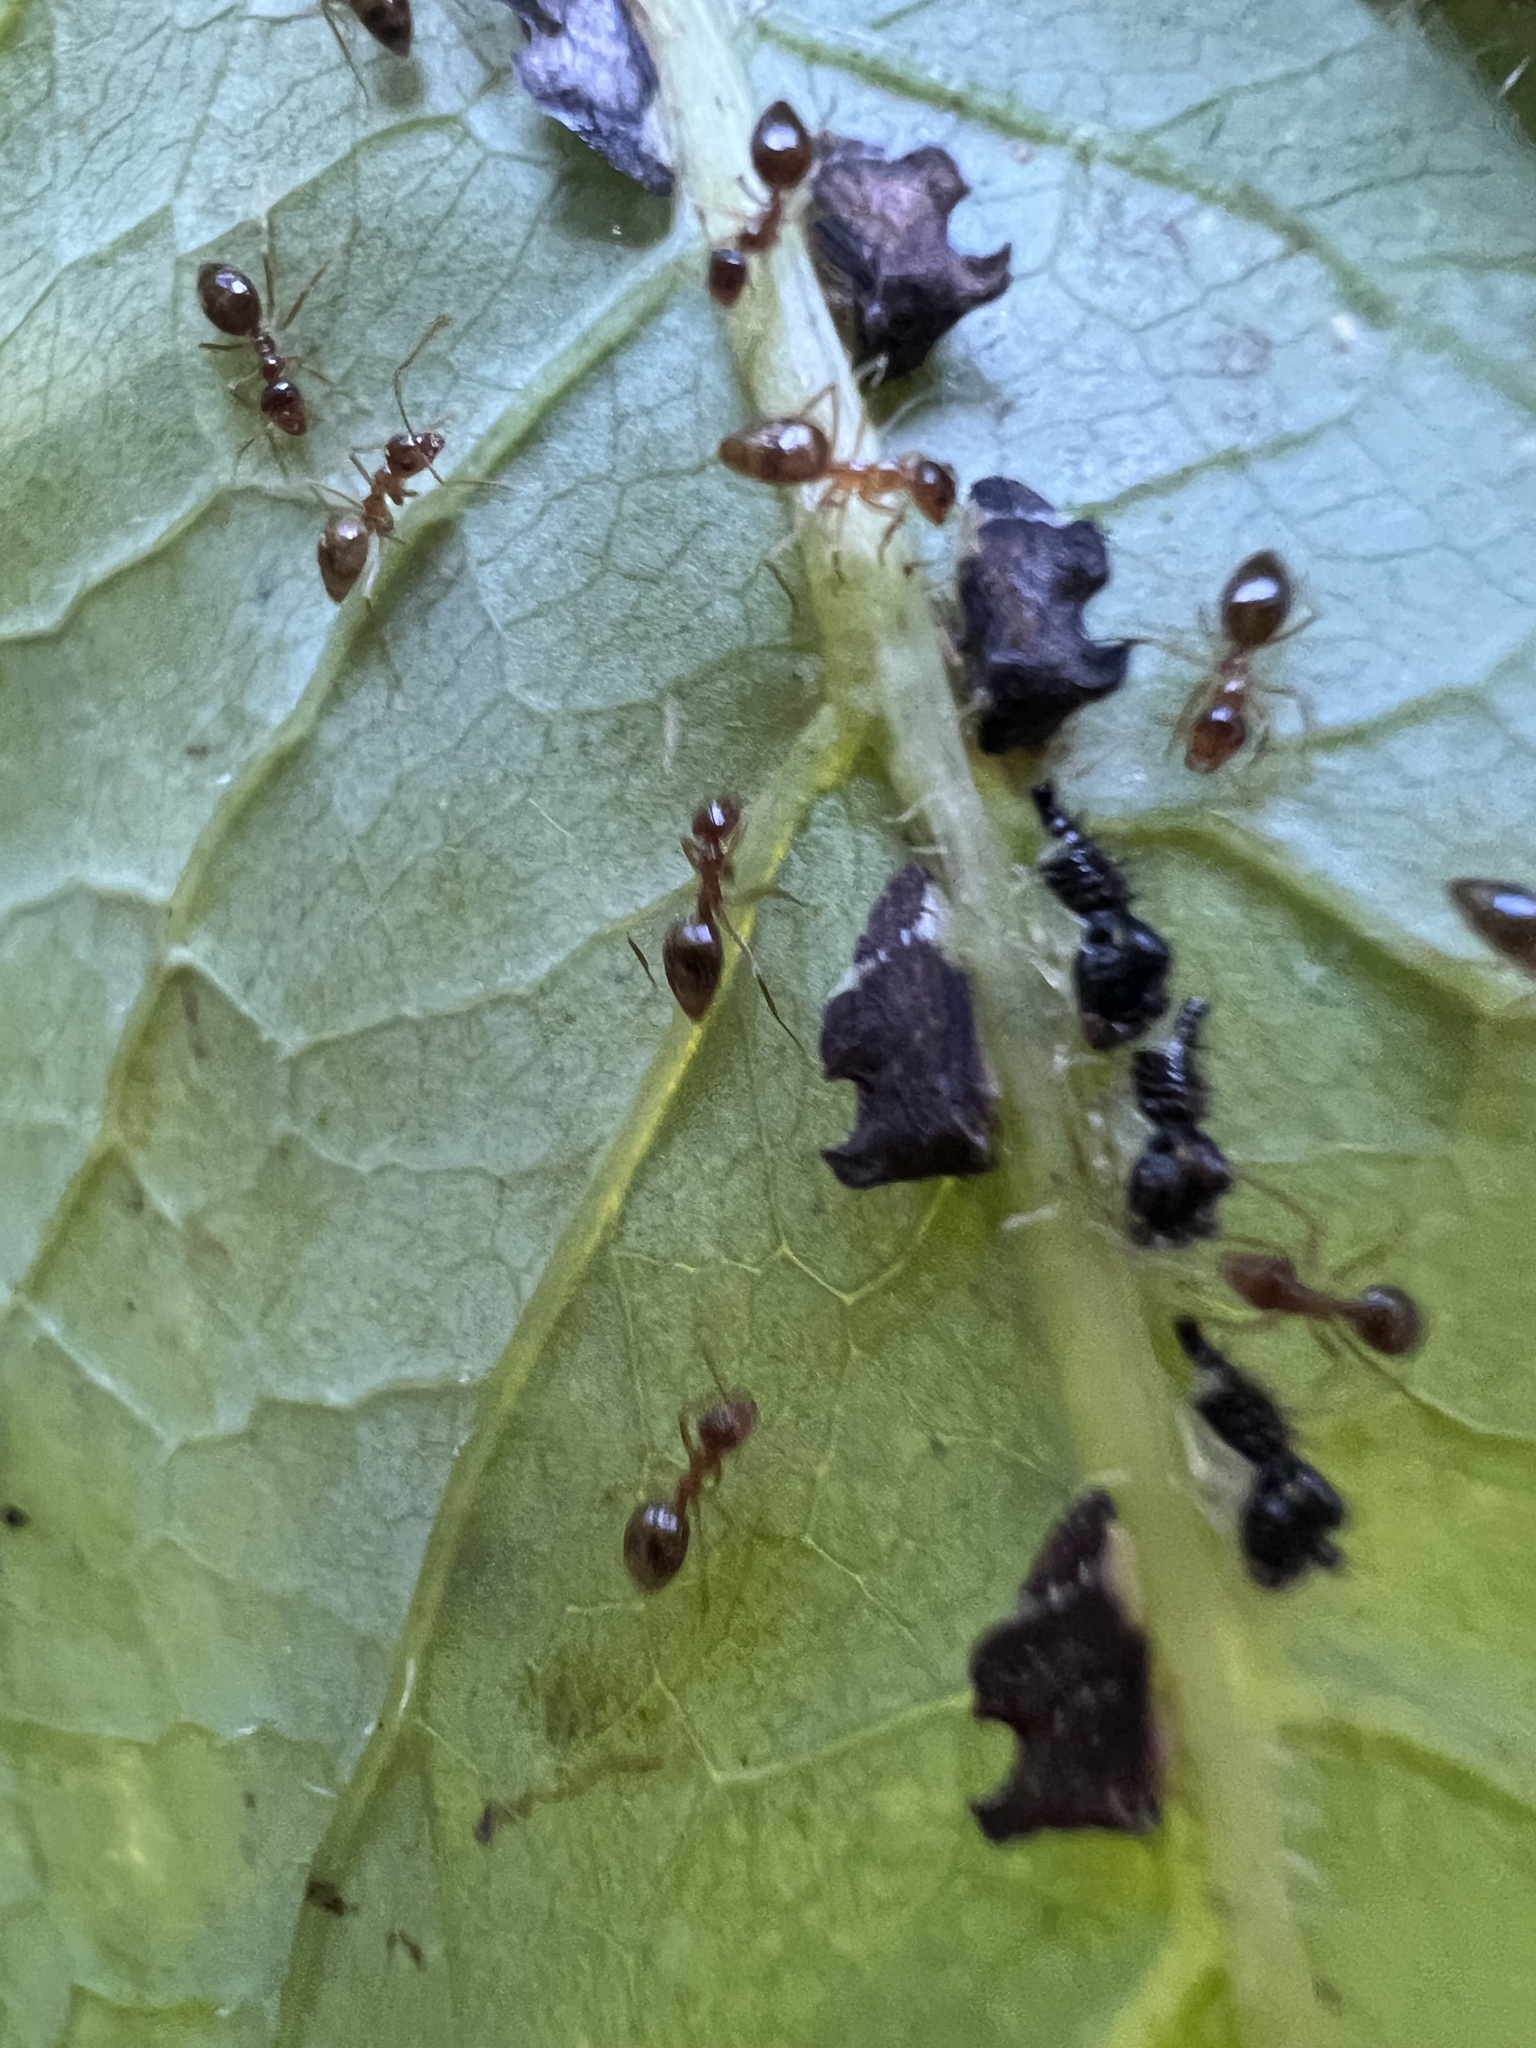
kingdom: Animalia
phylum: Arthropoda
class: Insecta
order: Hymenoptera
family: Formicidae
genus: Prenolepis
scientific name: Prenolepis imparis
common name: Small honey ant
